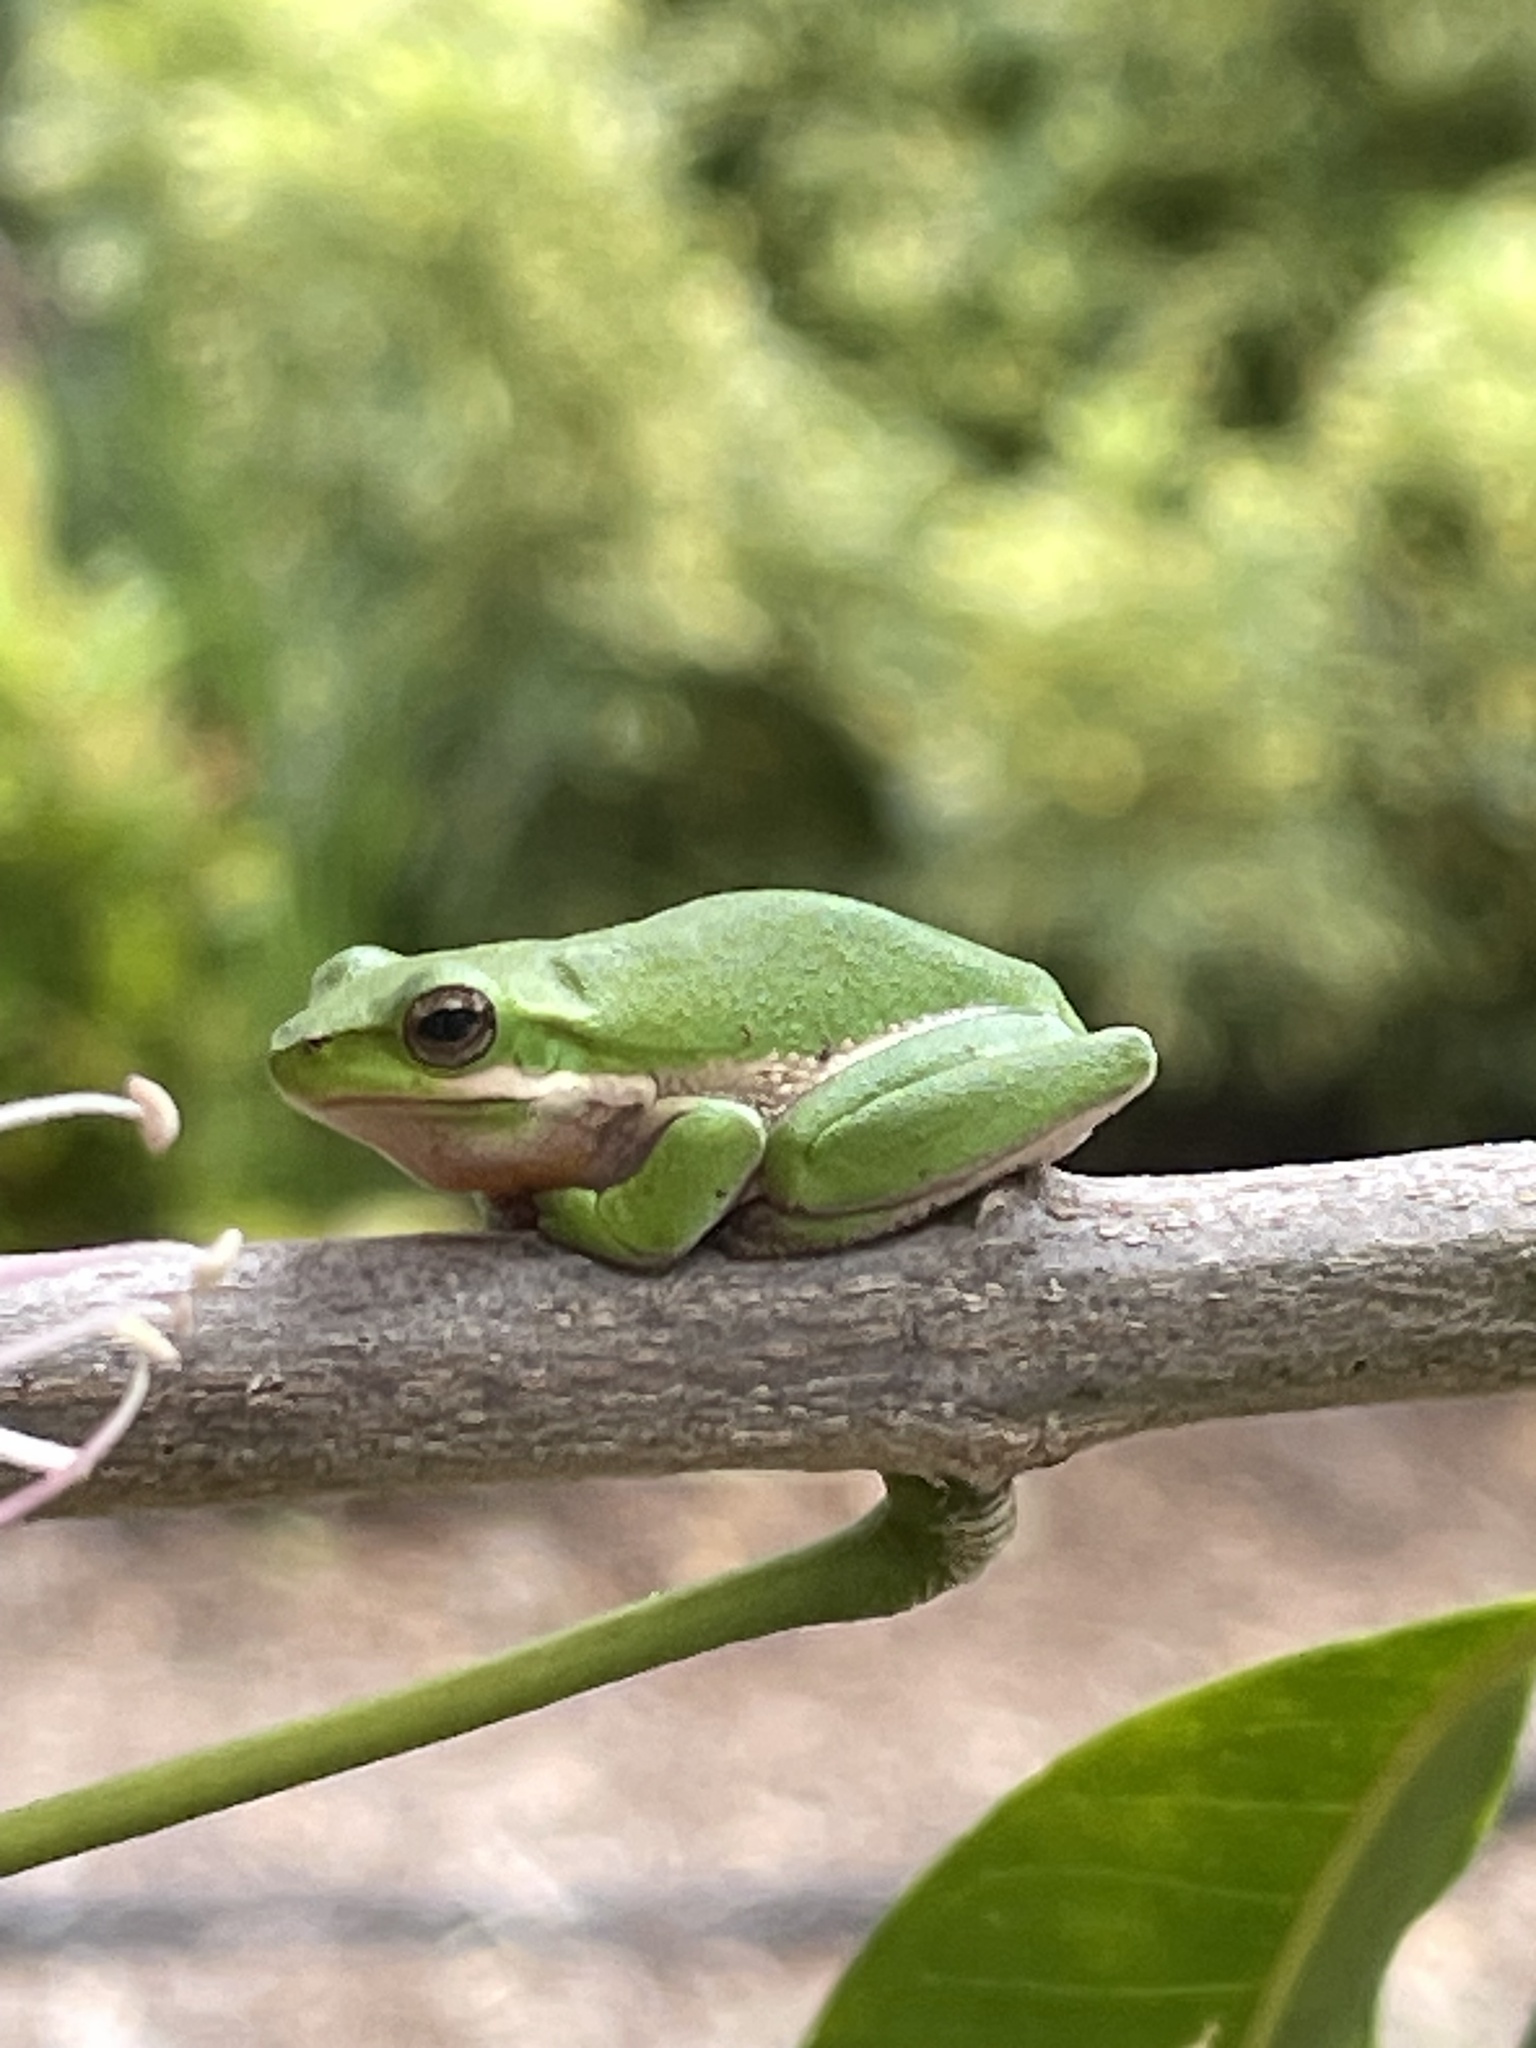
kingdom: Animalia
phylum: Chordata
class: Amphibia
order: Anura
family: Pelodryadidae
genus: Litoria
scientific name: Litoria fallax
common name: Eastern dwarf treefrog
